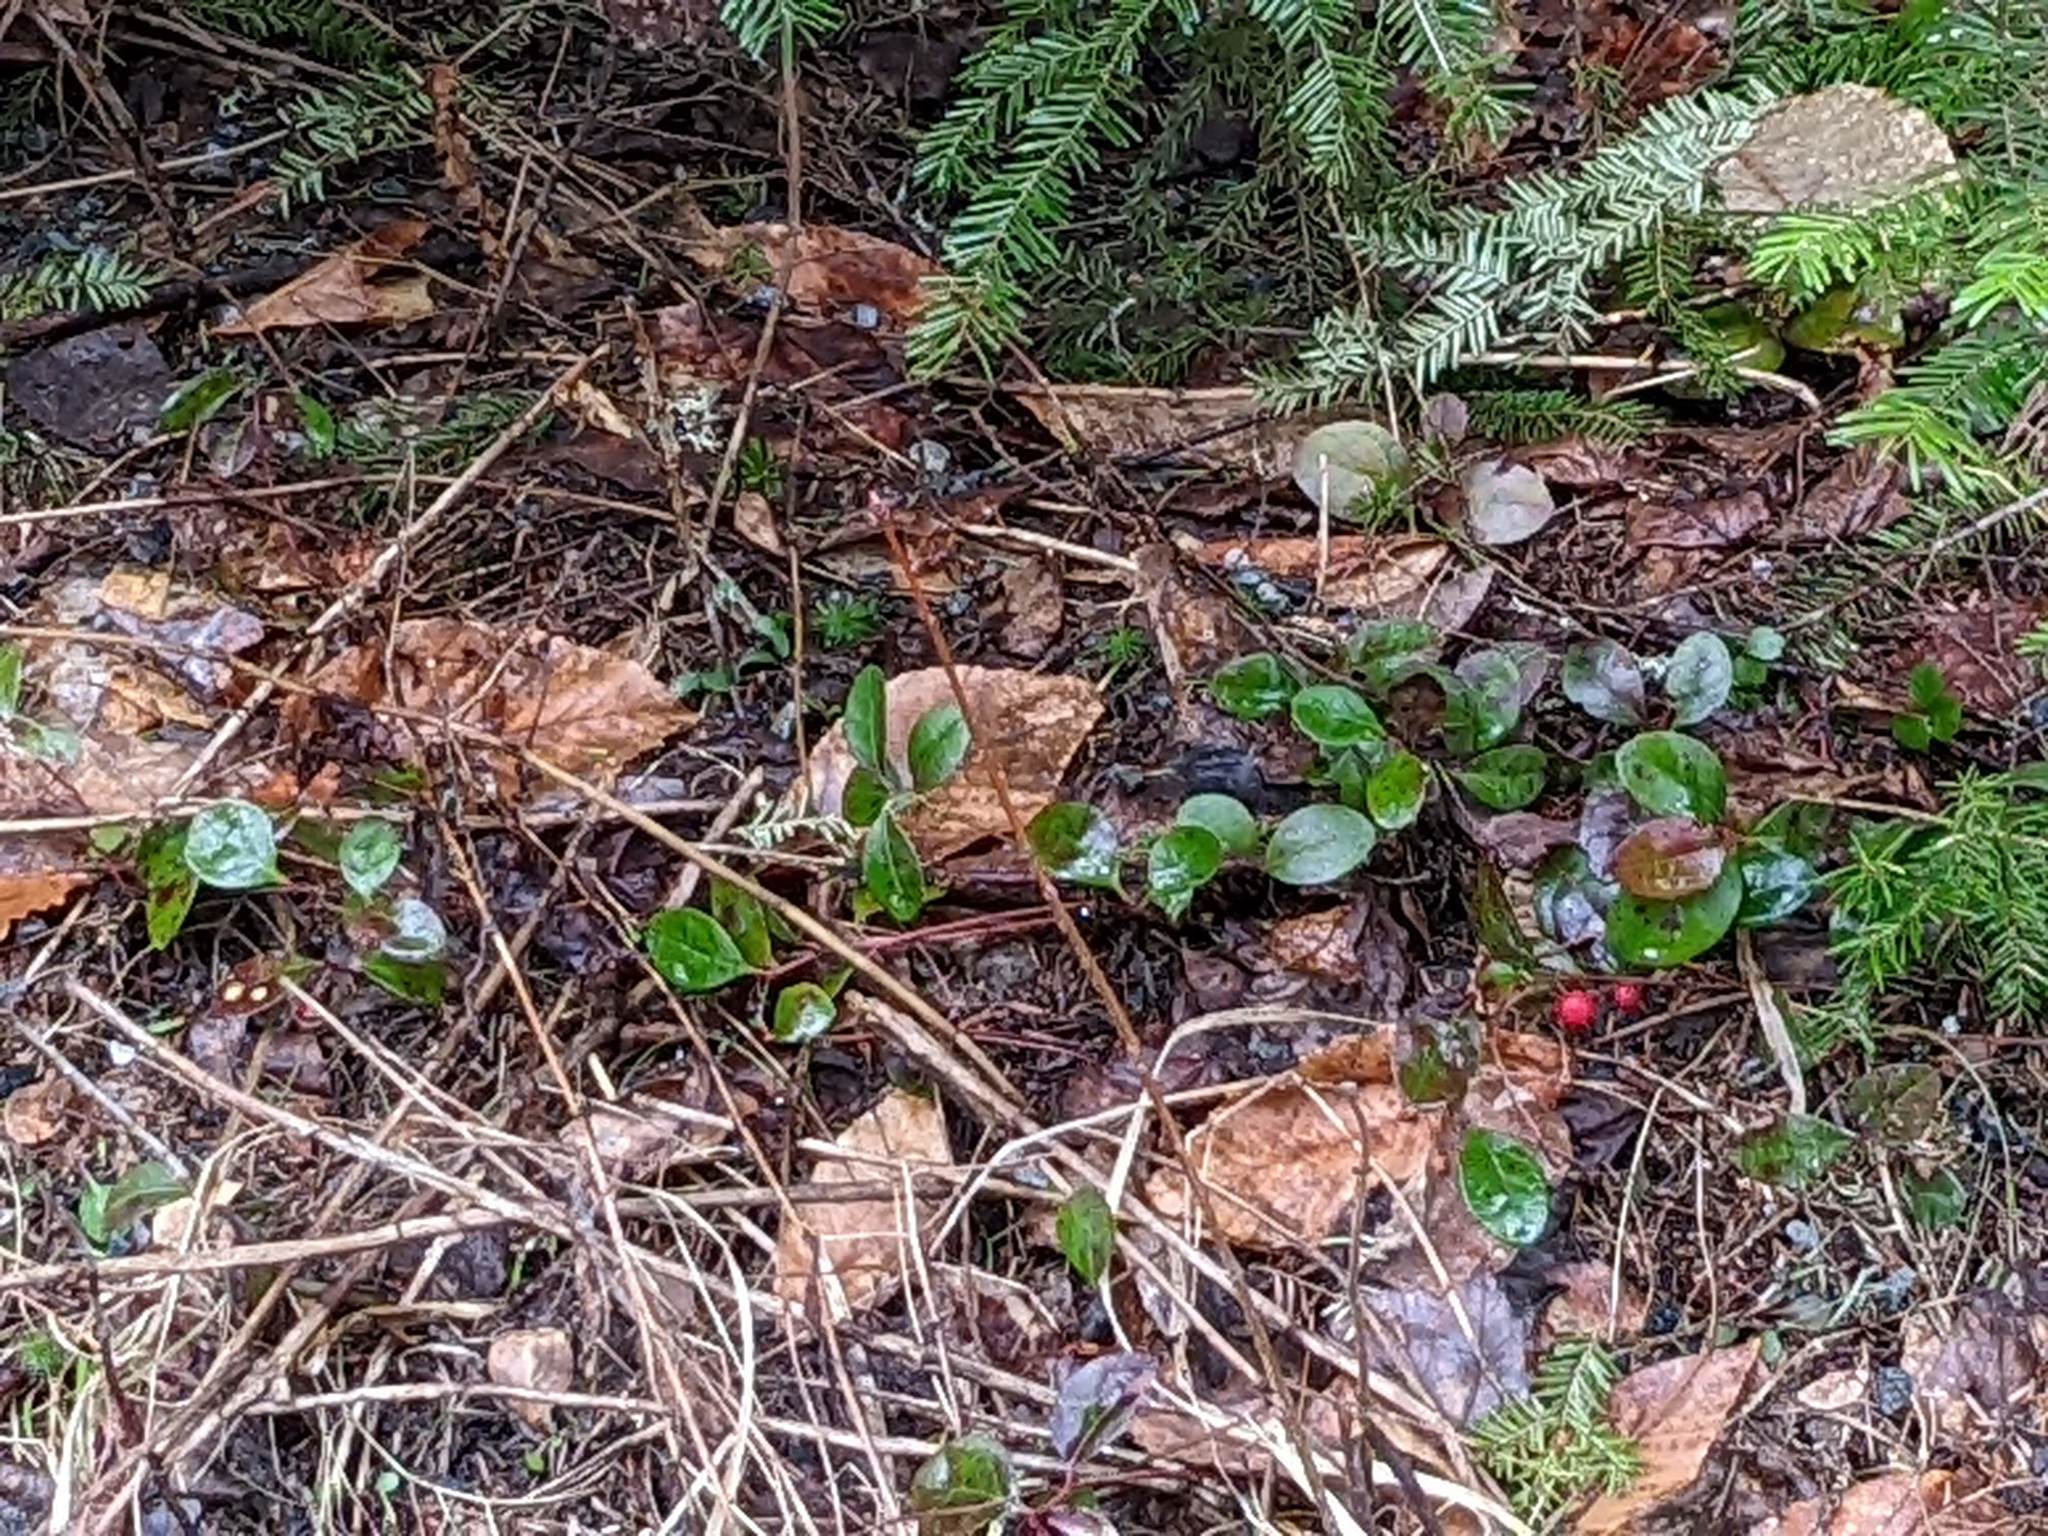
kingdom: Plantae
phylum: Tracheophyta
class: Pinopsida
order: Pinales
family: Pinaceae
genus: Tsuga
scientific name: Tsuga canadensis
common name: Eastern hemlock
